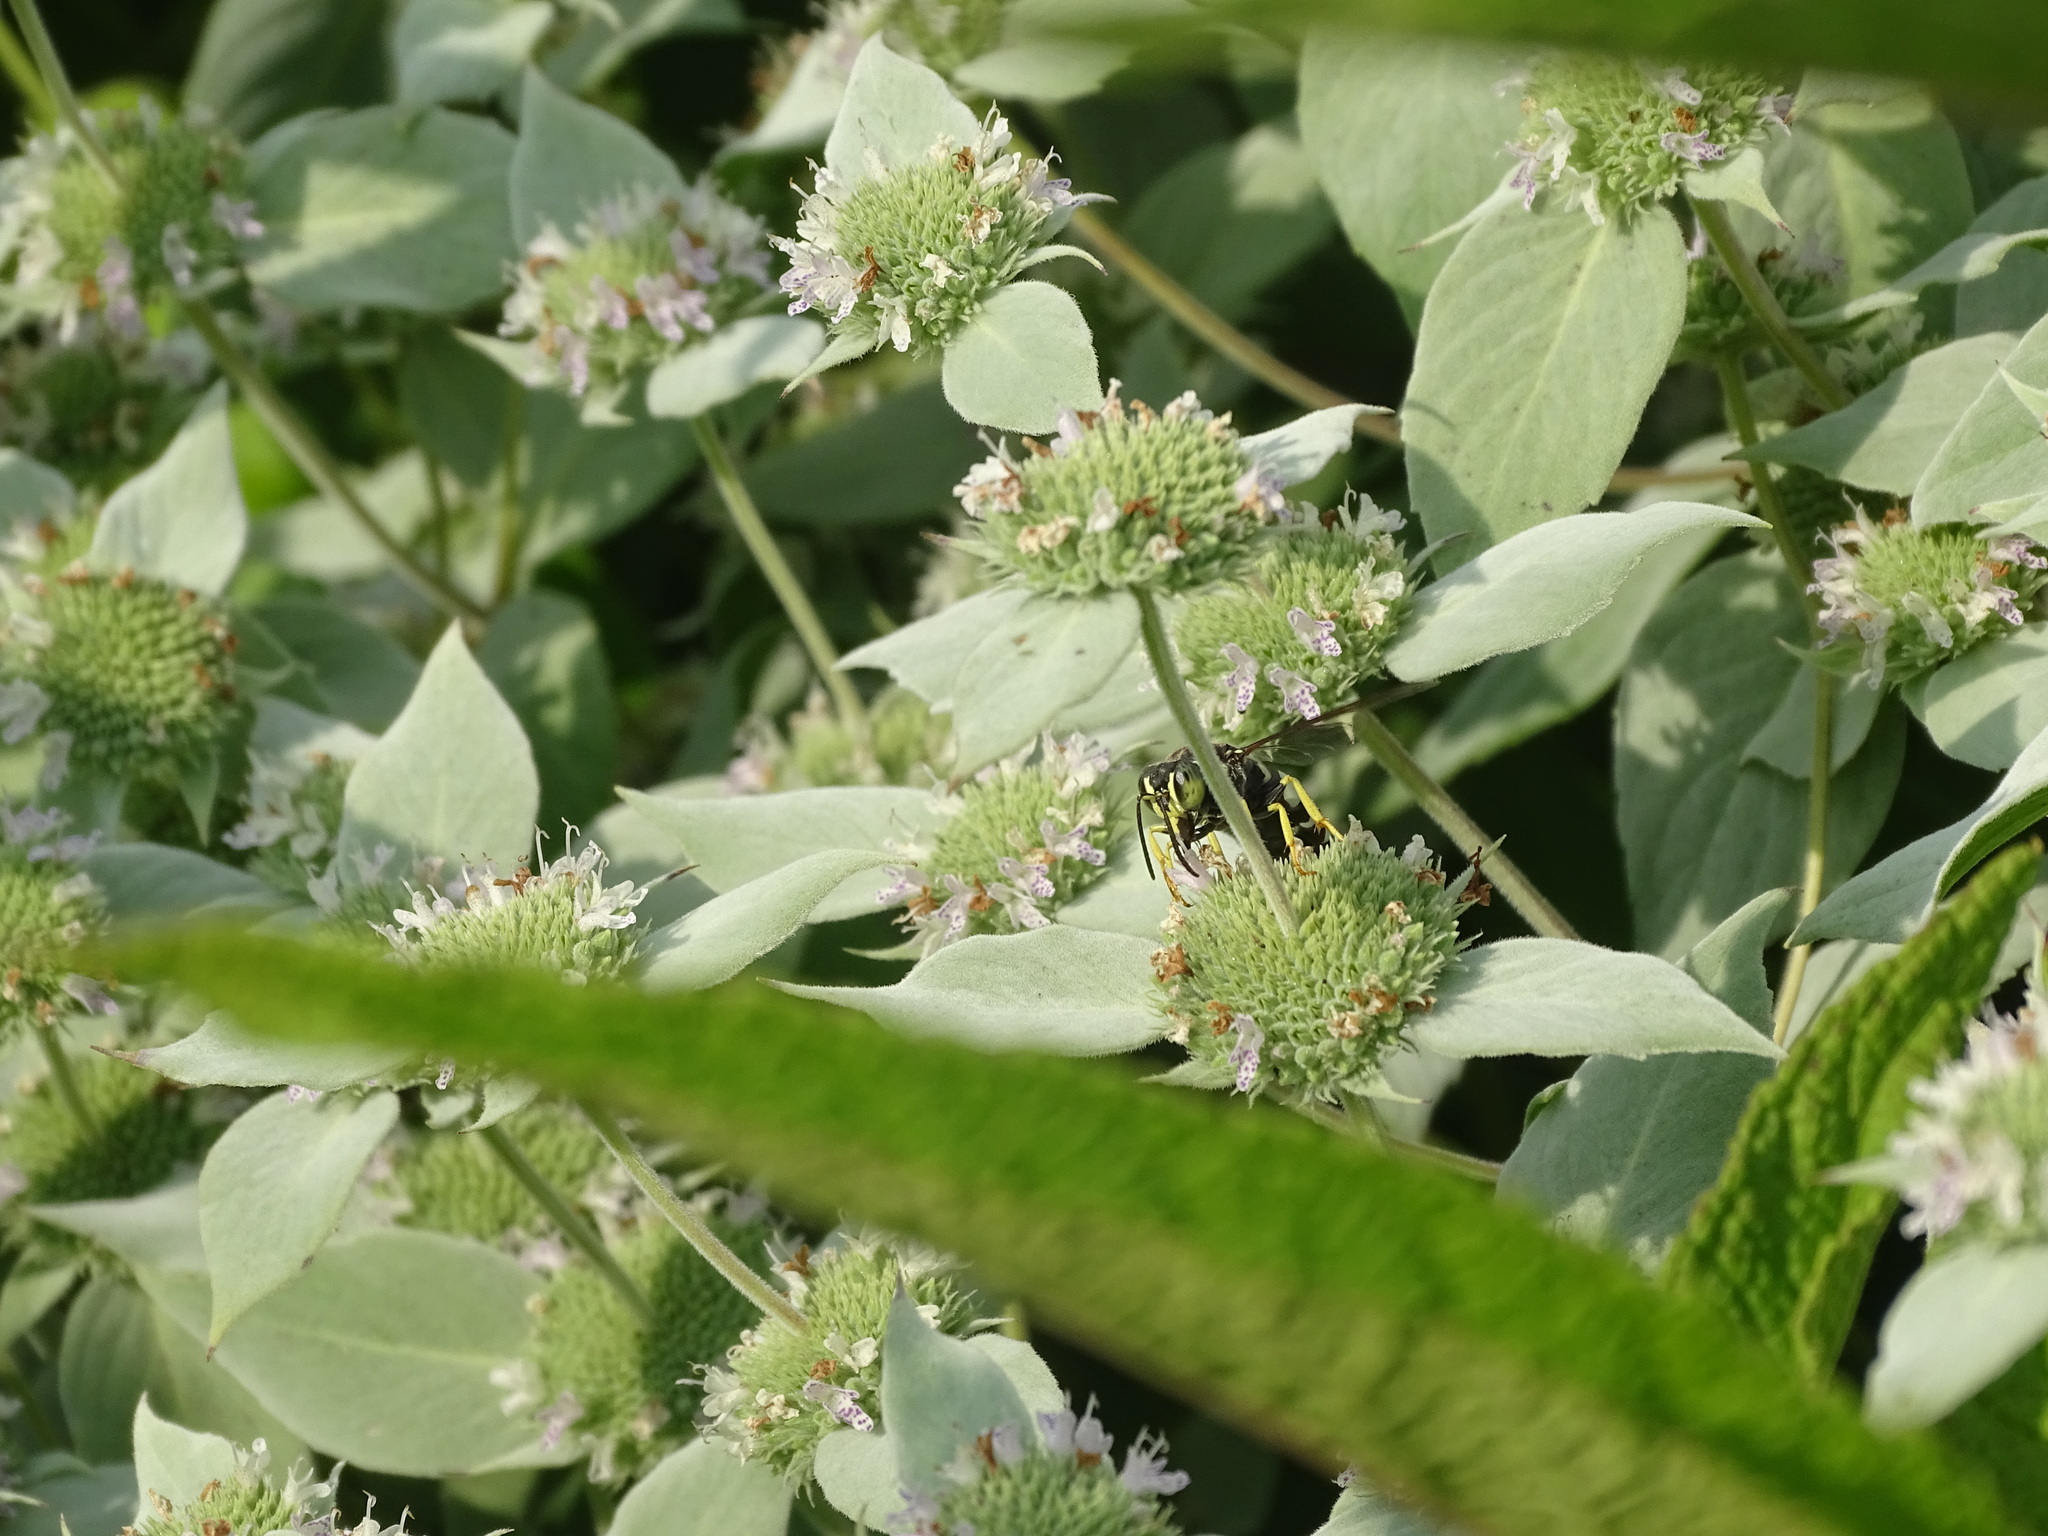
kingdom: Plantae
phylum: Tracheophyta
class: Magnoliopsida
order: Lamiales
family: Lamiaceae
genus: Pycnanthemum
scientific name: Pycnanthemum muticum
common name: Blunt mountain-mint
